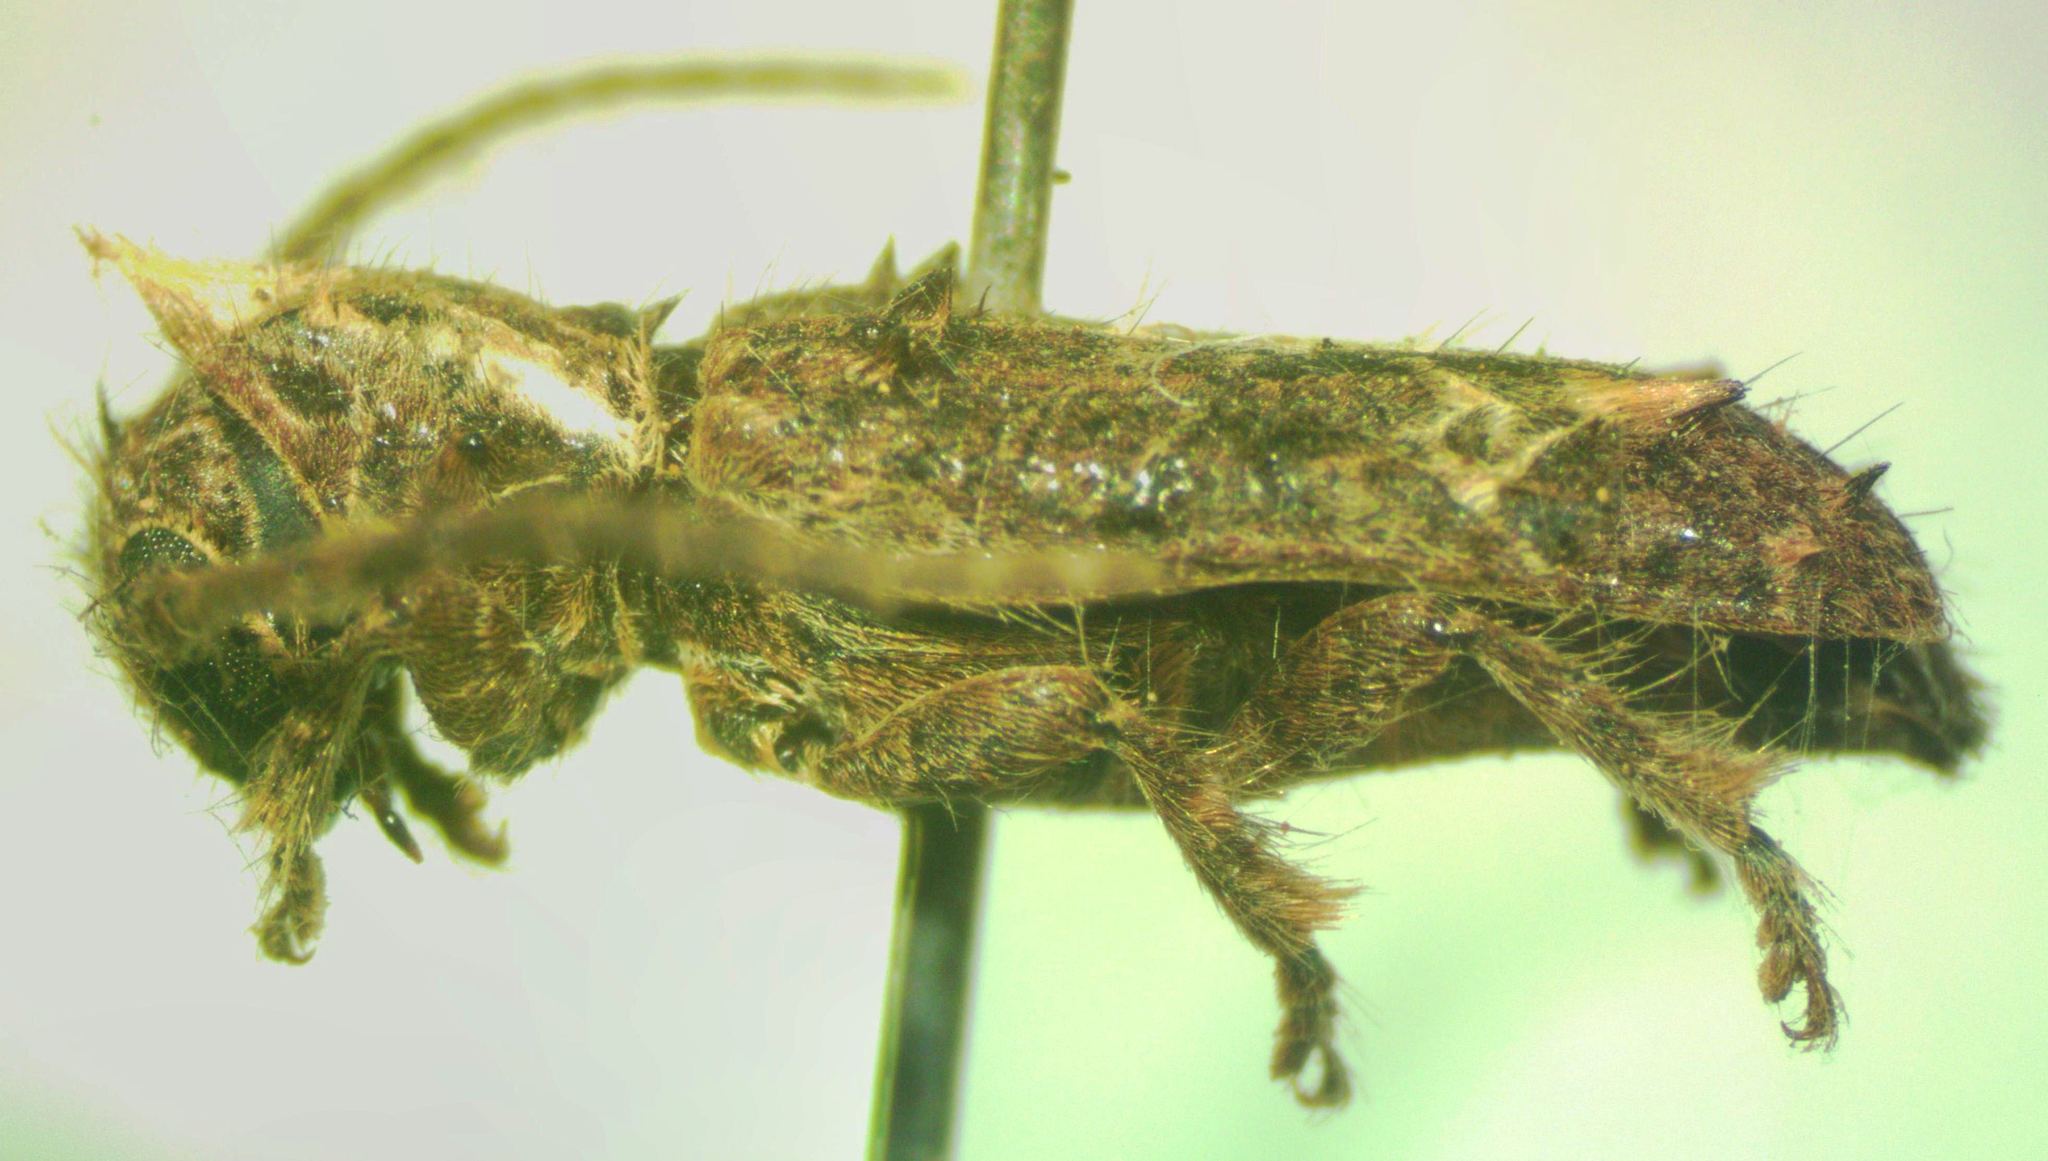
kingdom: Animalia
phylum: Arthropoda
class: Insecta
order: Coleoptera
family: Cerambycidae
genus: Desmiphora
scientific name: Desmiphora hirticollis
